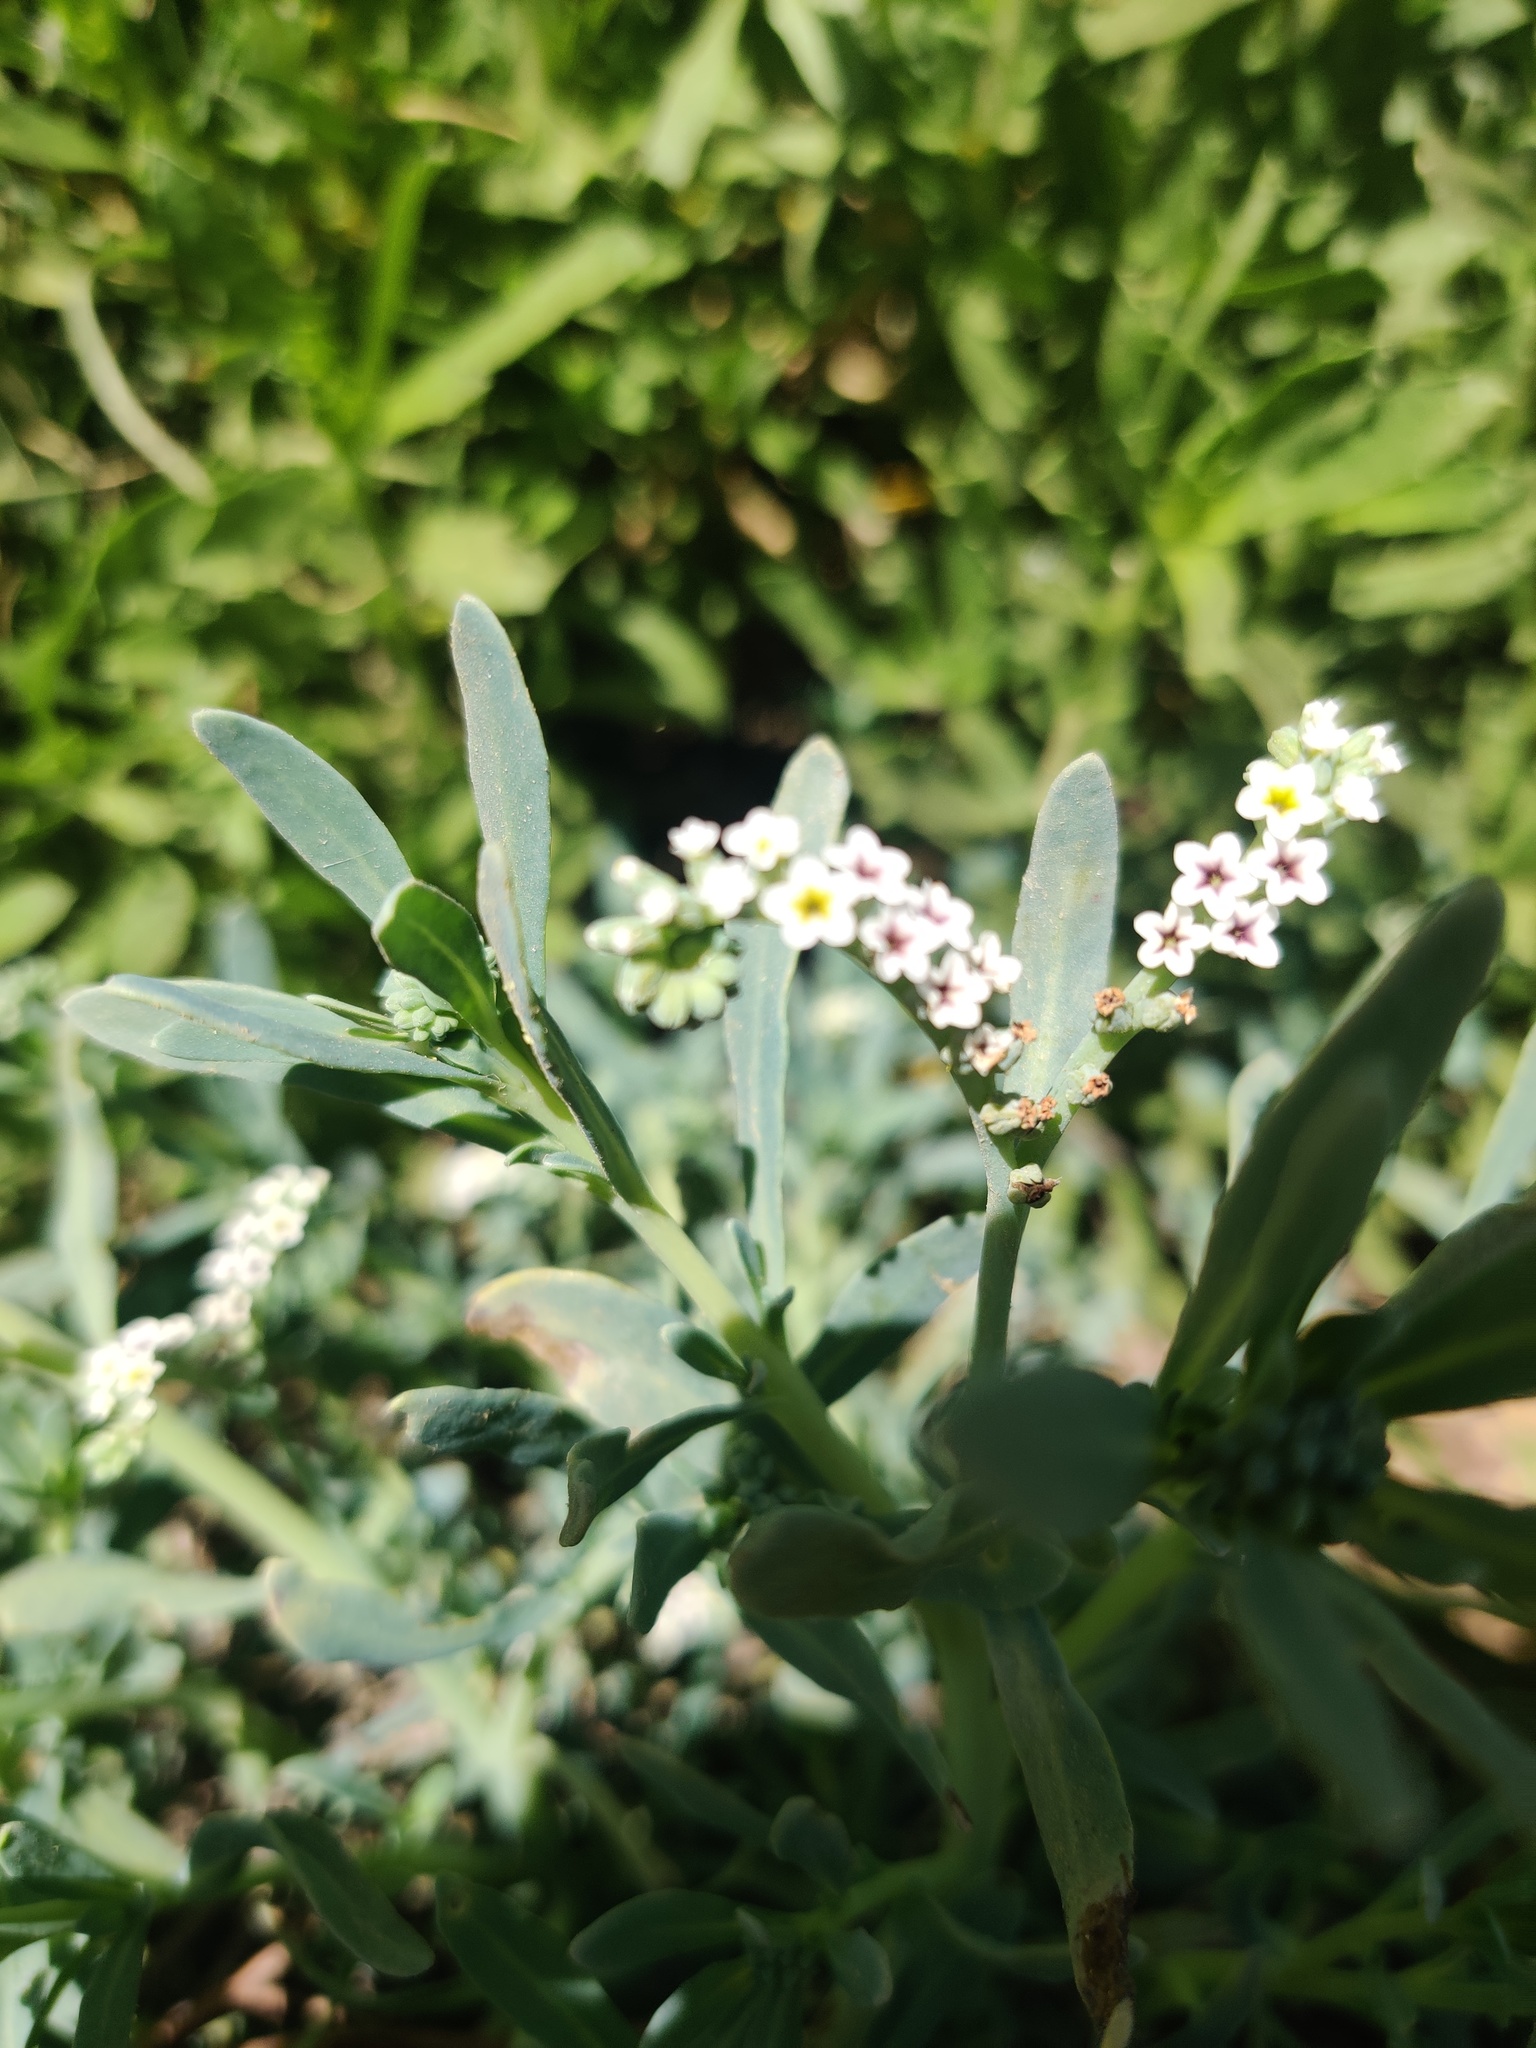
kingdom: Plantae
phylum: Tracheophyta
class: Magnoliopsida
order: Boraginales
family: Heliotropiaceae
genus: Heliotropium
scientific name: Heliotropium curassavicum
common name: Seaside heliotrope
